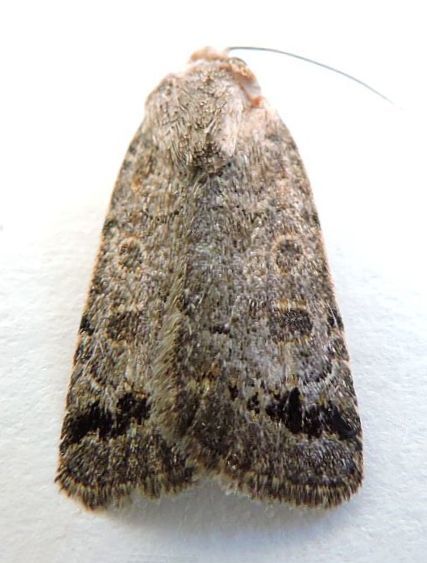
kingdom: Animalia
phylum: Arthropoda
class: Insecta
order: Lepidoptera
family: Noctuidae
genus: Anorthodes
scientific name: Anorthodes triquetra
